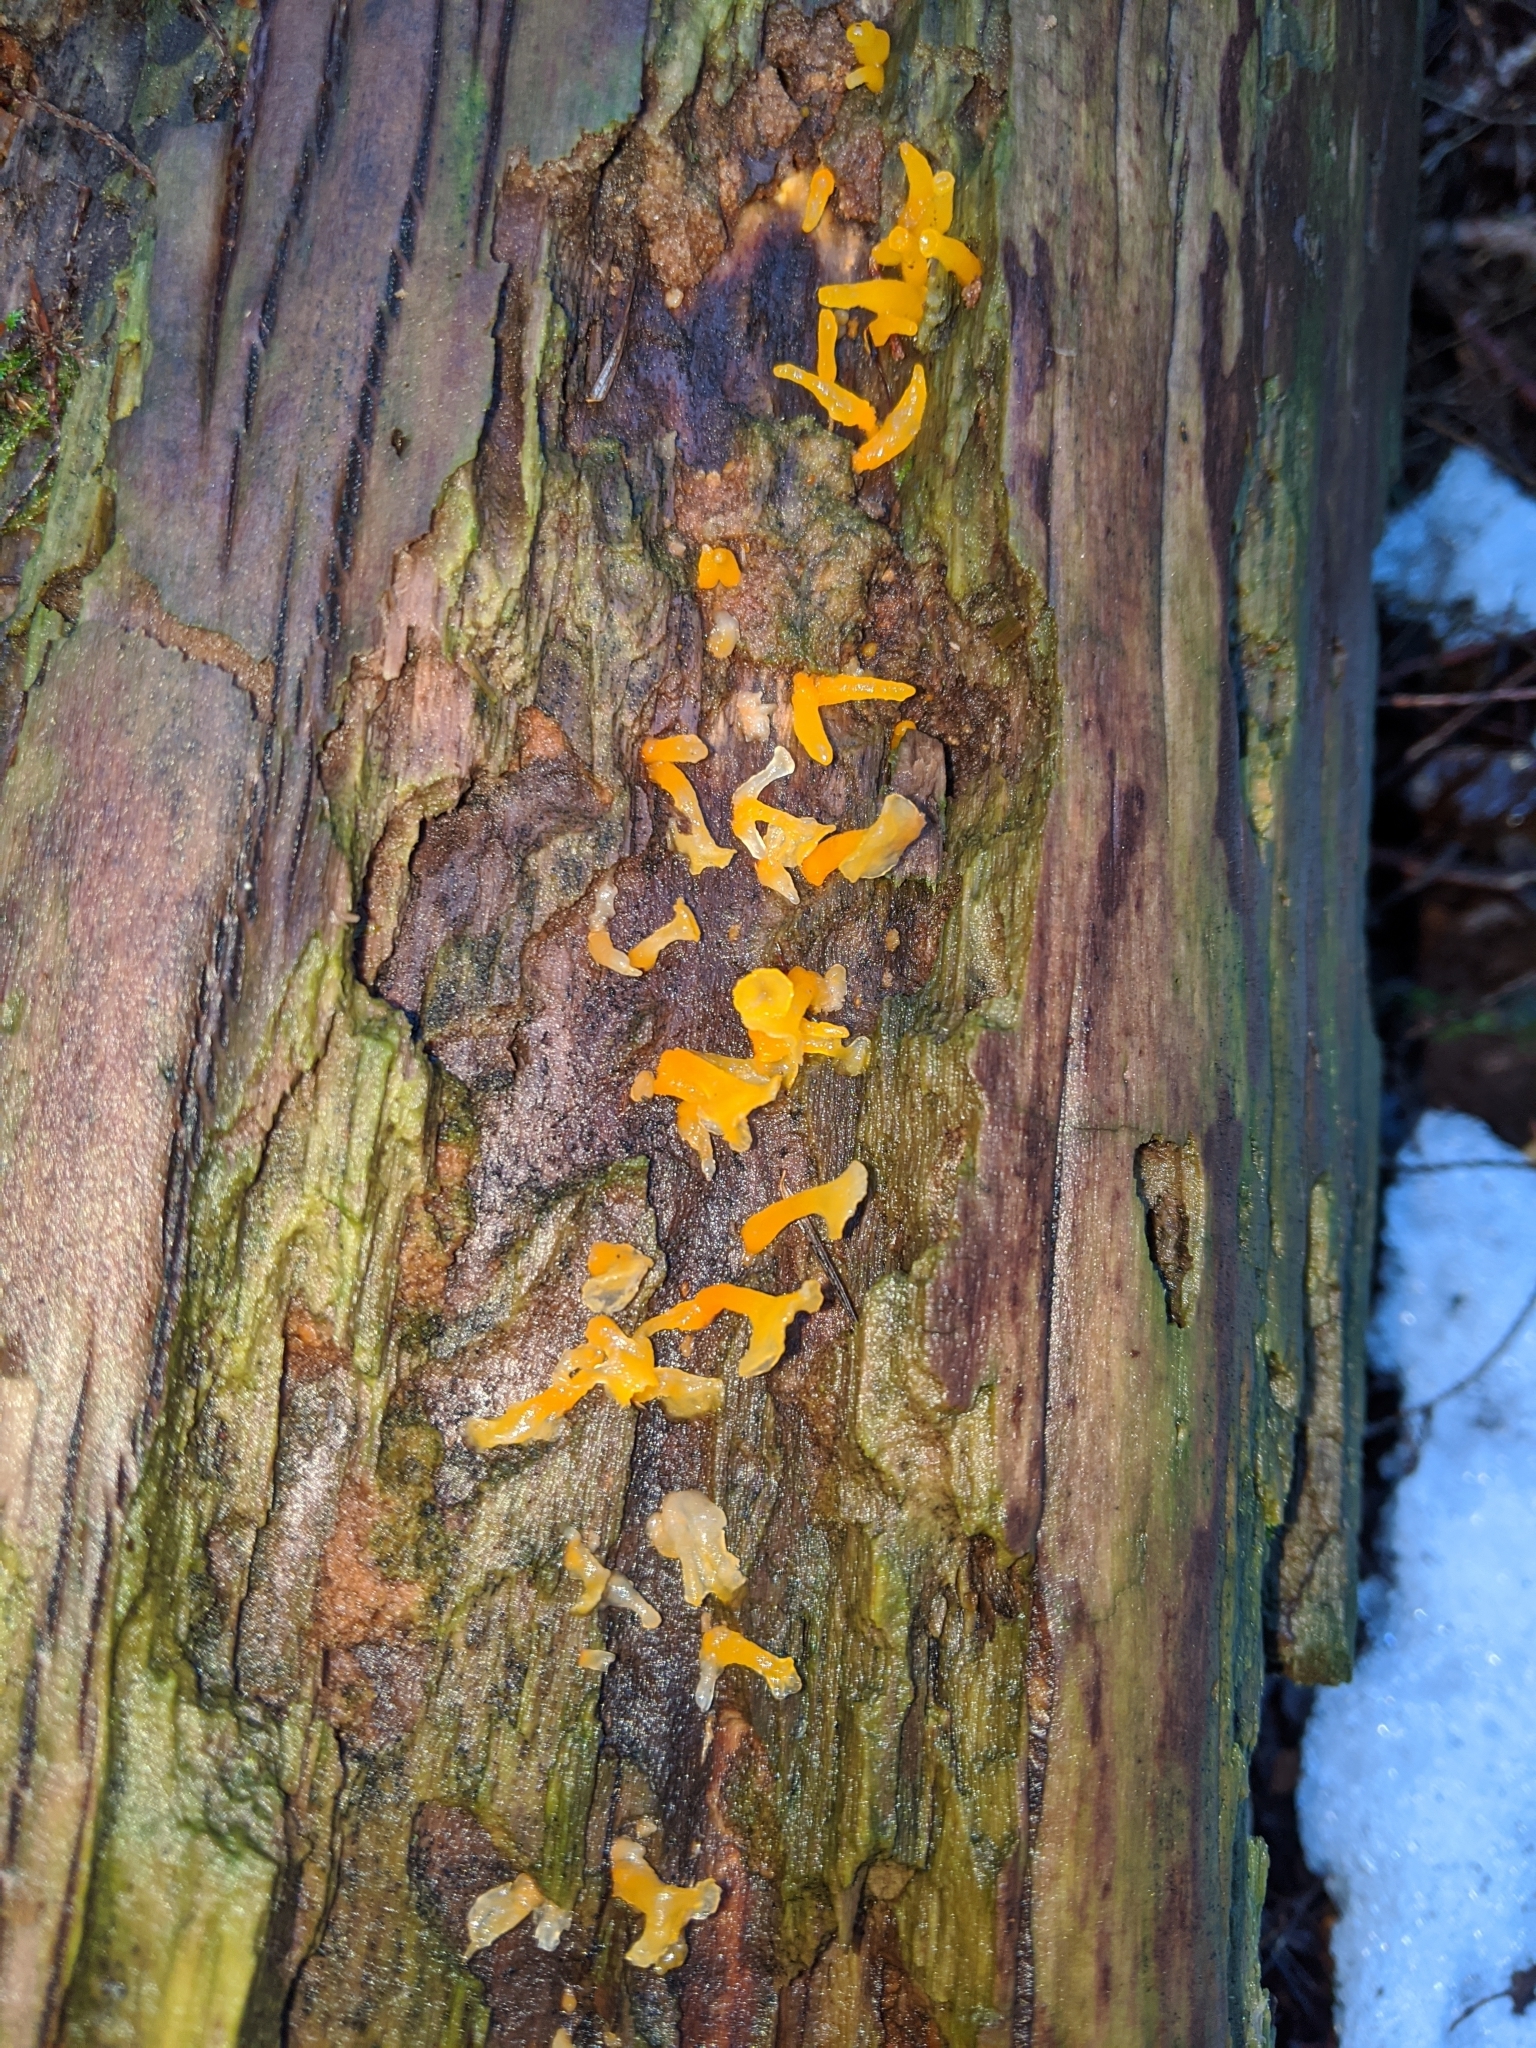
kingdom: Fungi
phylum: Basidiomycota
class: Dacrymycetes
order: Dacrymycetales
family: Dacrymycetaceae
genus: Dacrymyces
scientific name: Dacrymyces spathularius
